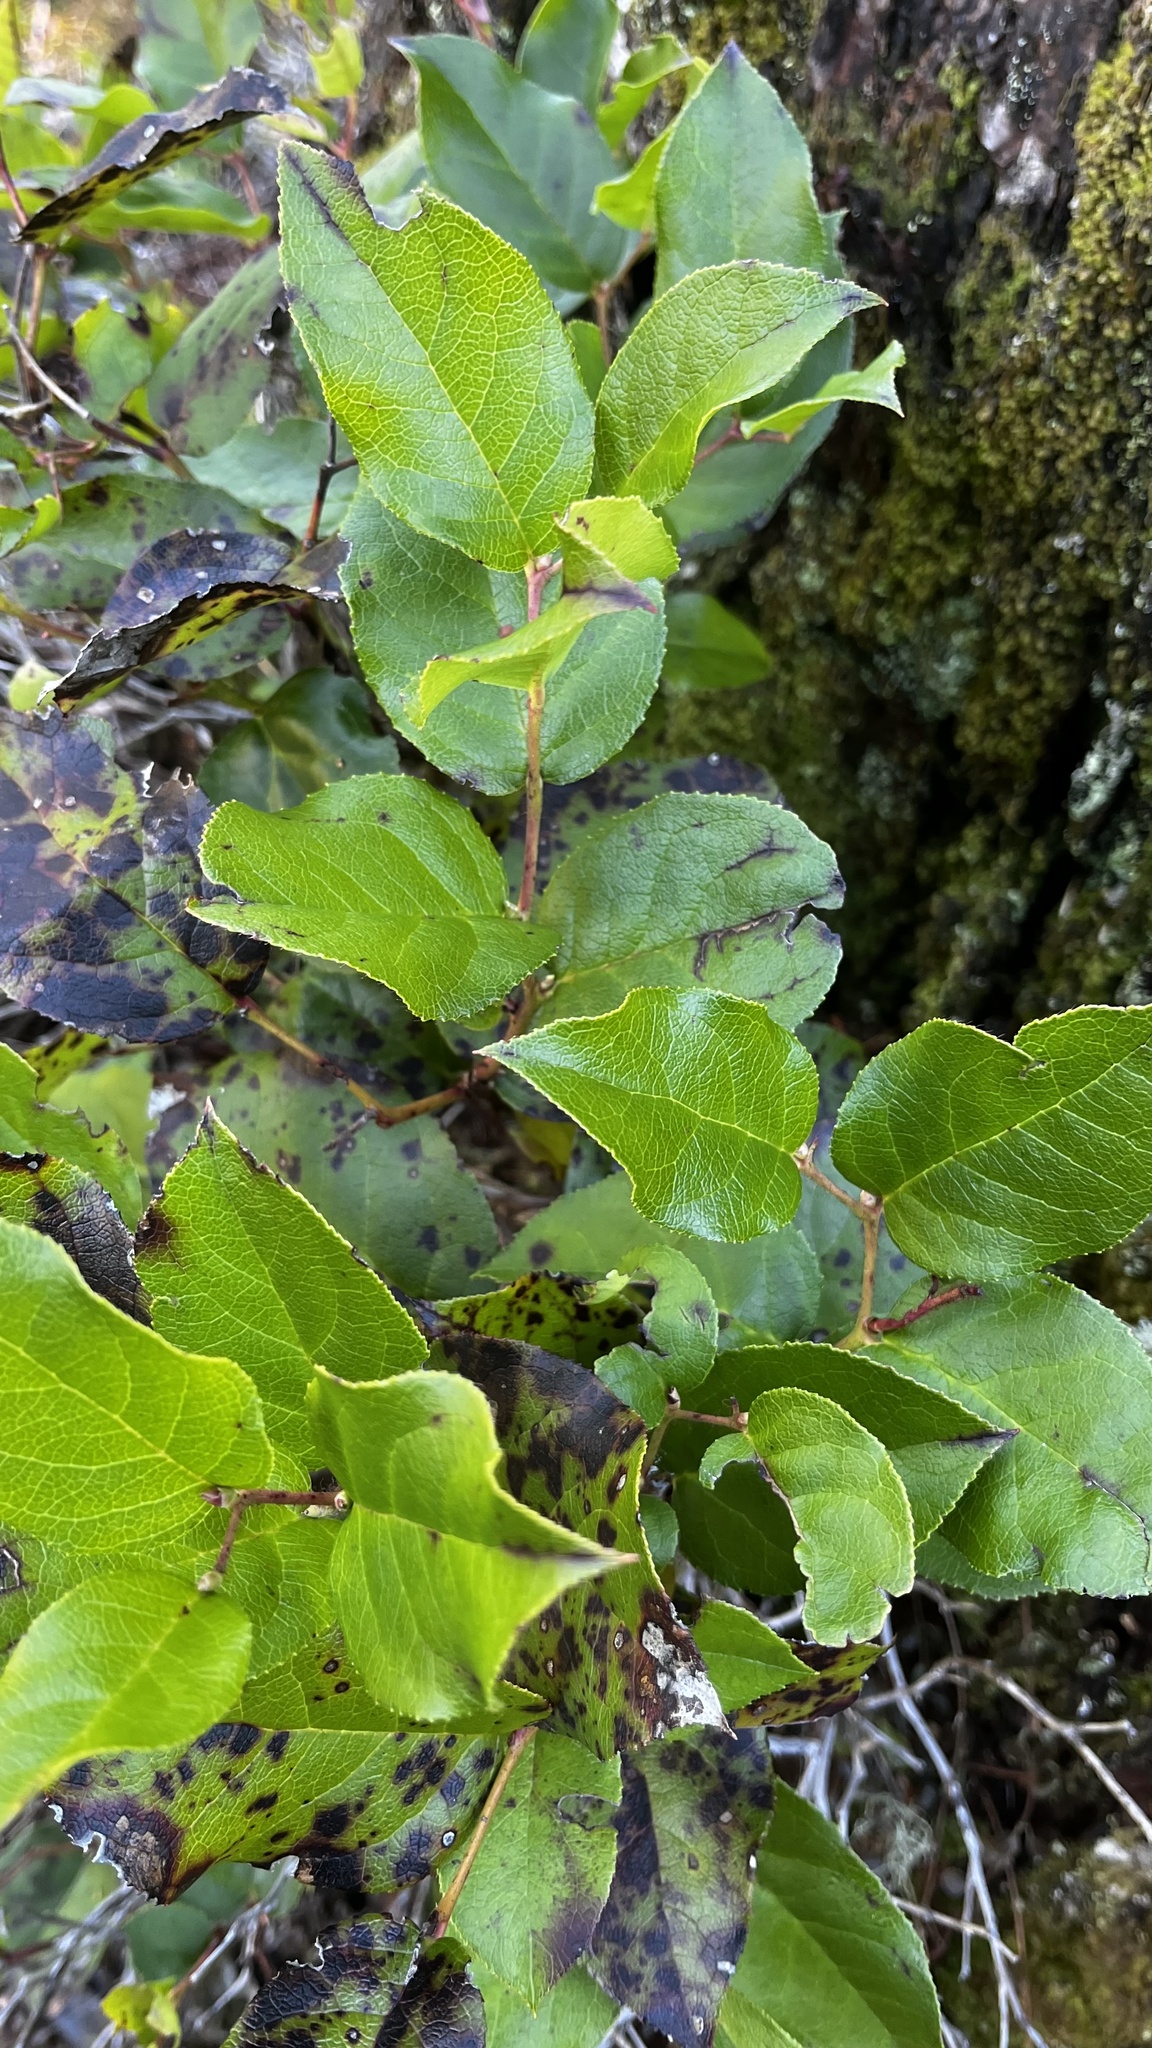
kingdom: Plantae
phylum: Tracheophyta
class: Magnoliopsida
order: Ericales
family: Ericaceae
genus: Gaultheria
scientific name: Gaultheria shallon
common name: Shallon
